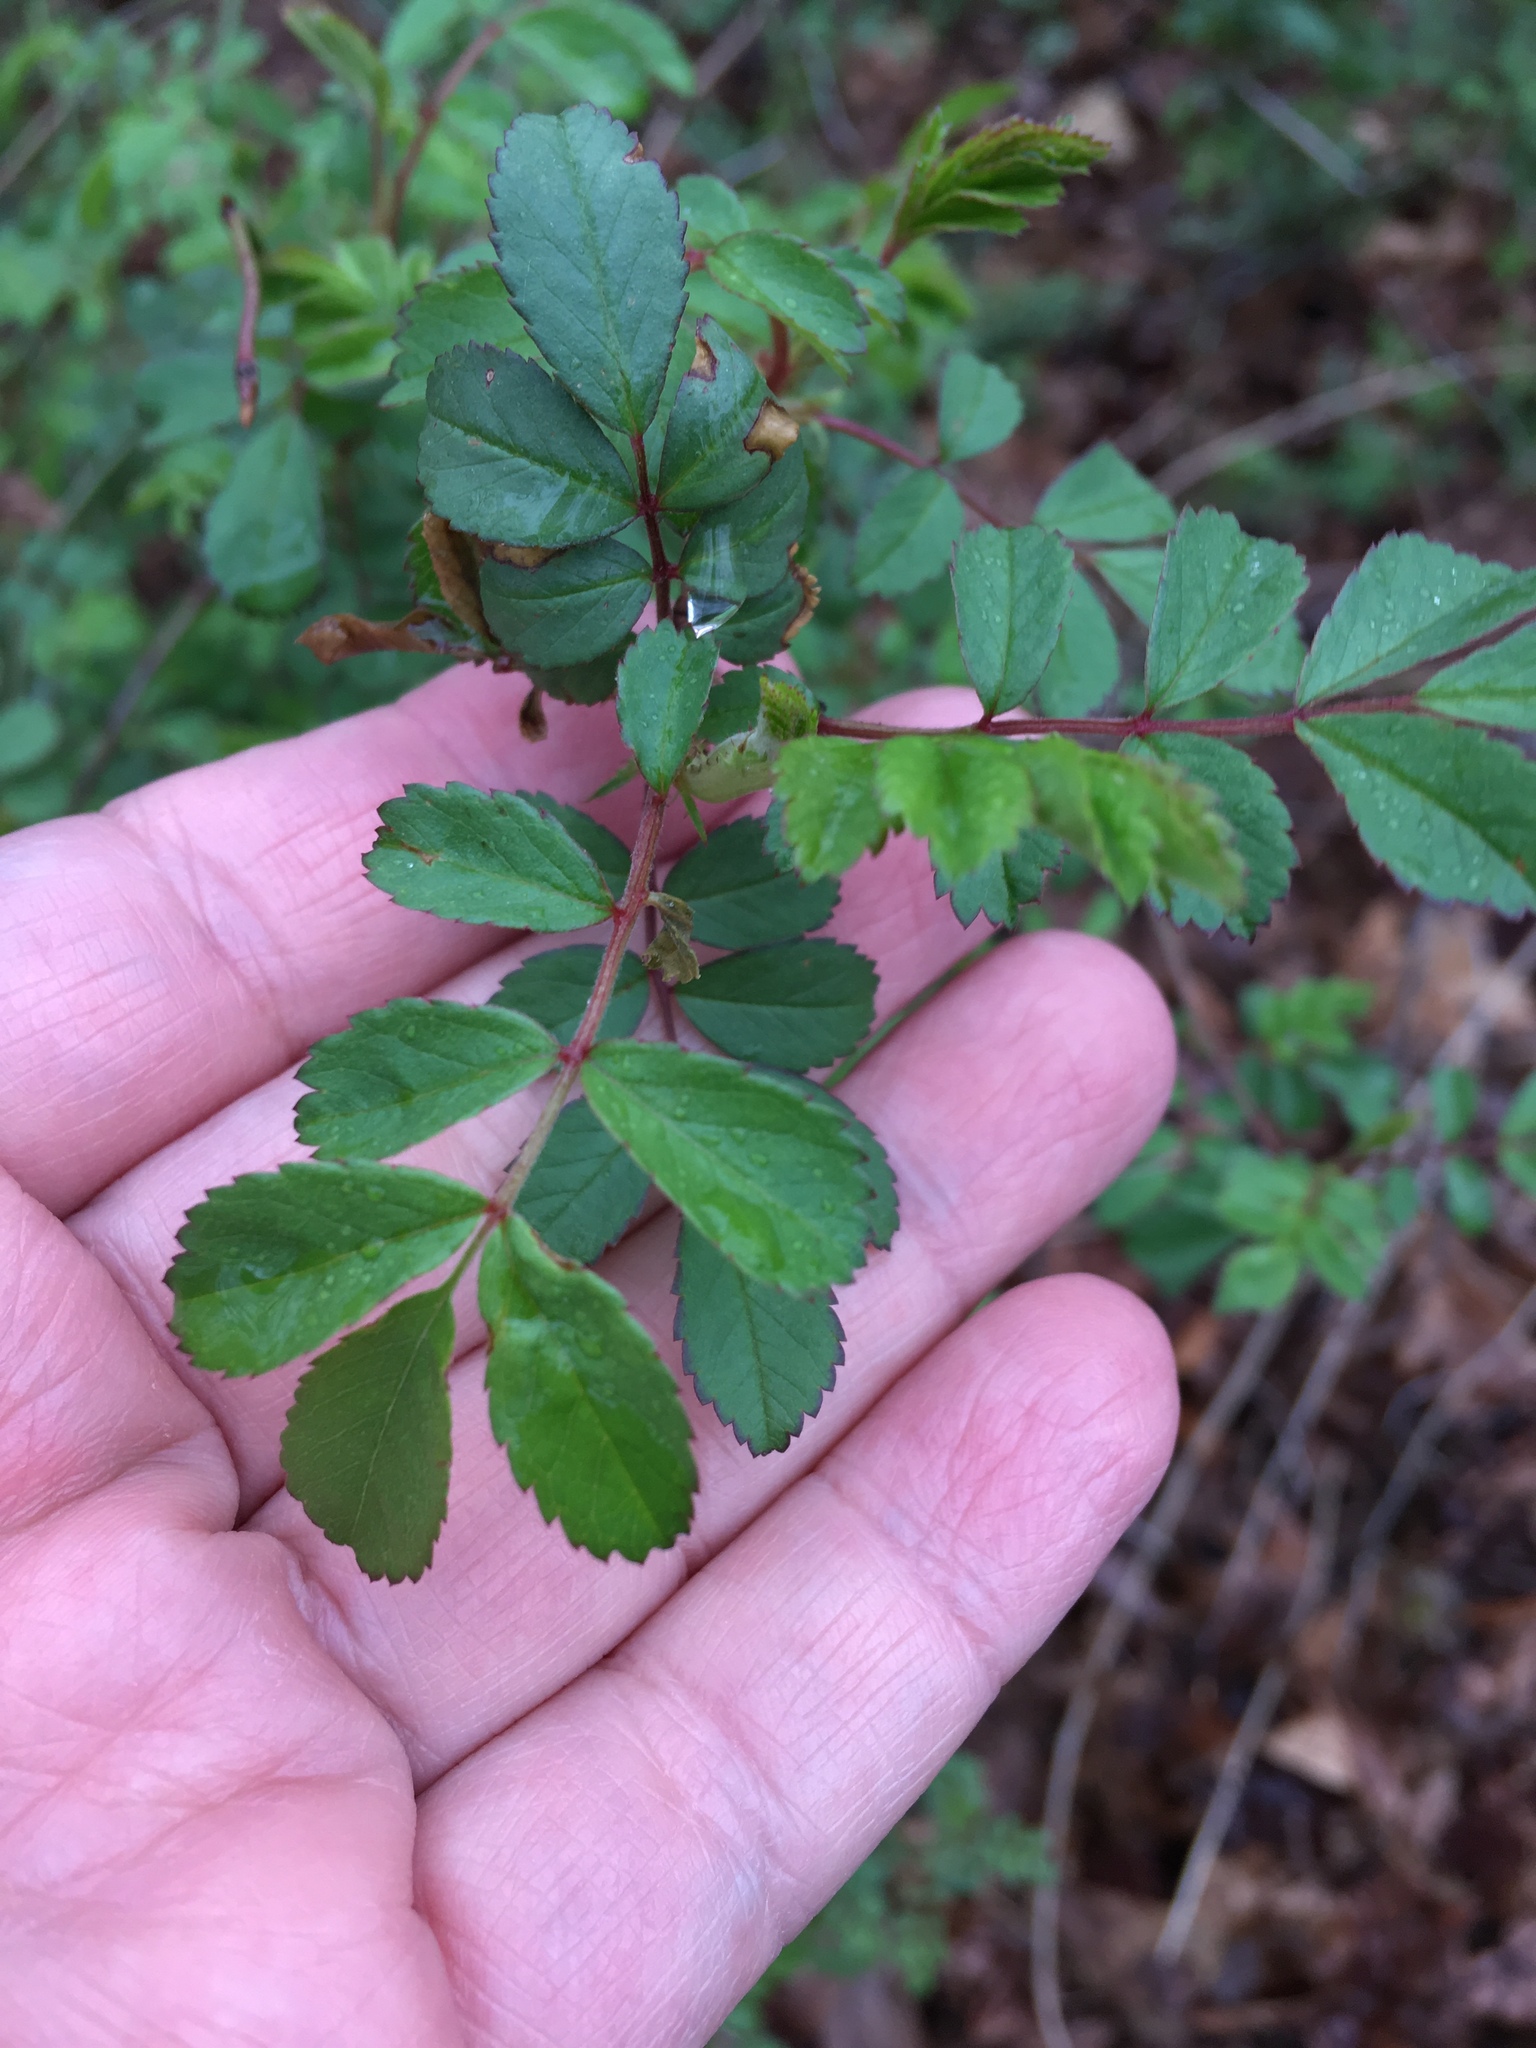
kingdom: Plantae
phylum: Tracheophyta
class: Magnoliopsida
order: Rosales
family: Rosaceae
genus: Rosa
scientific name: Rosa multiflora
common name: Multiflora rose
